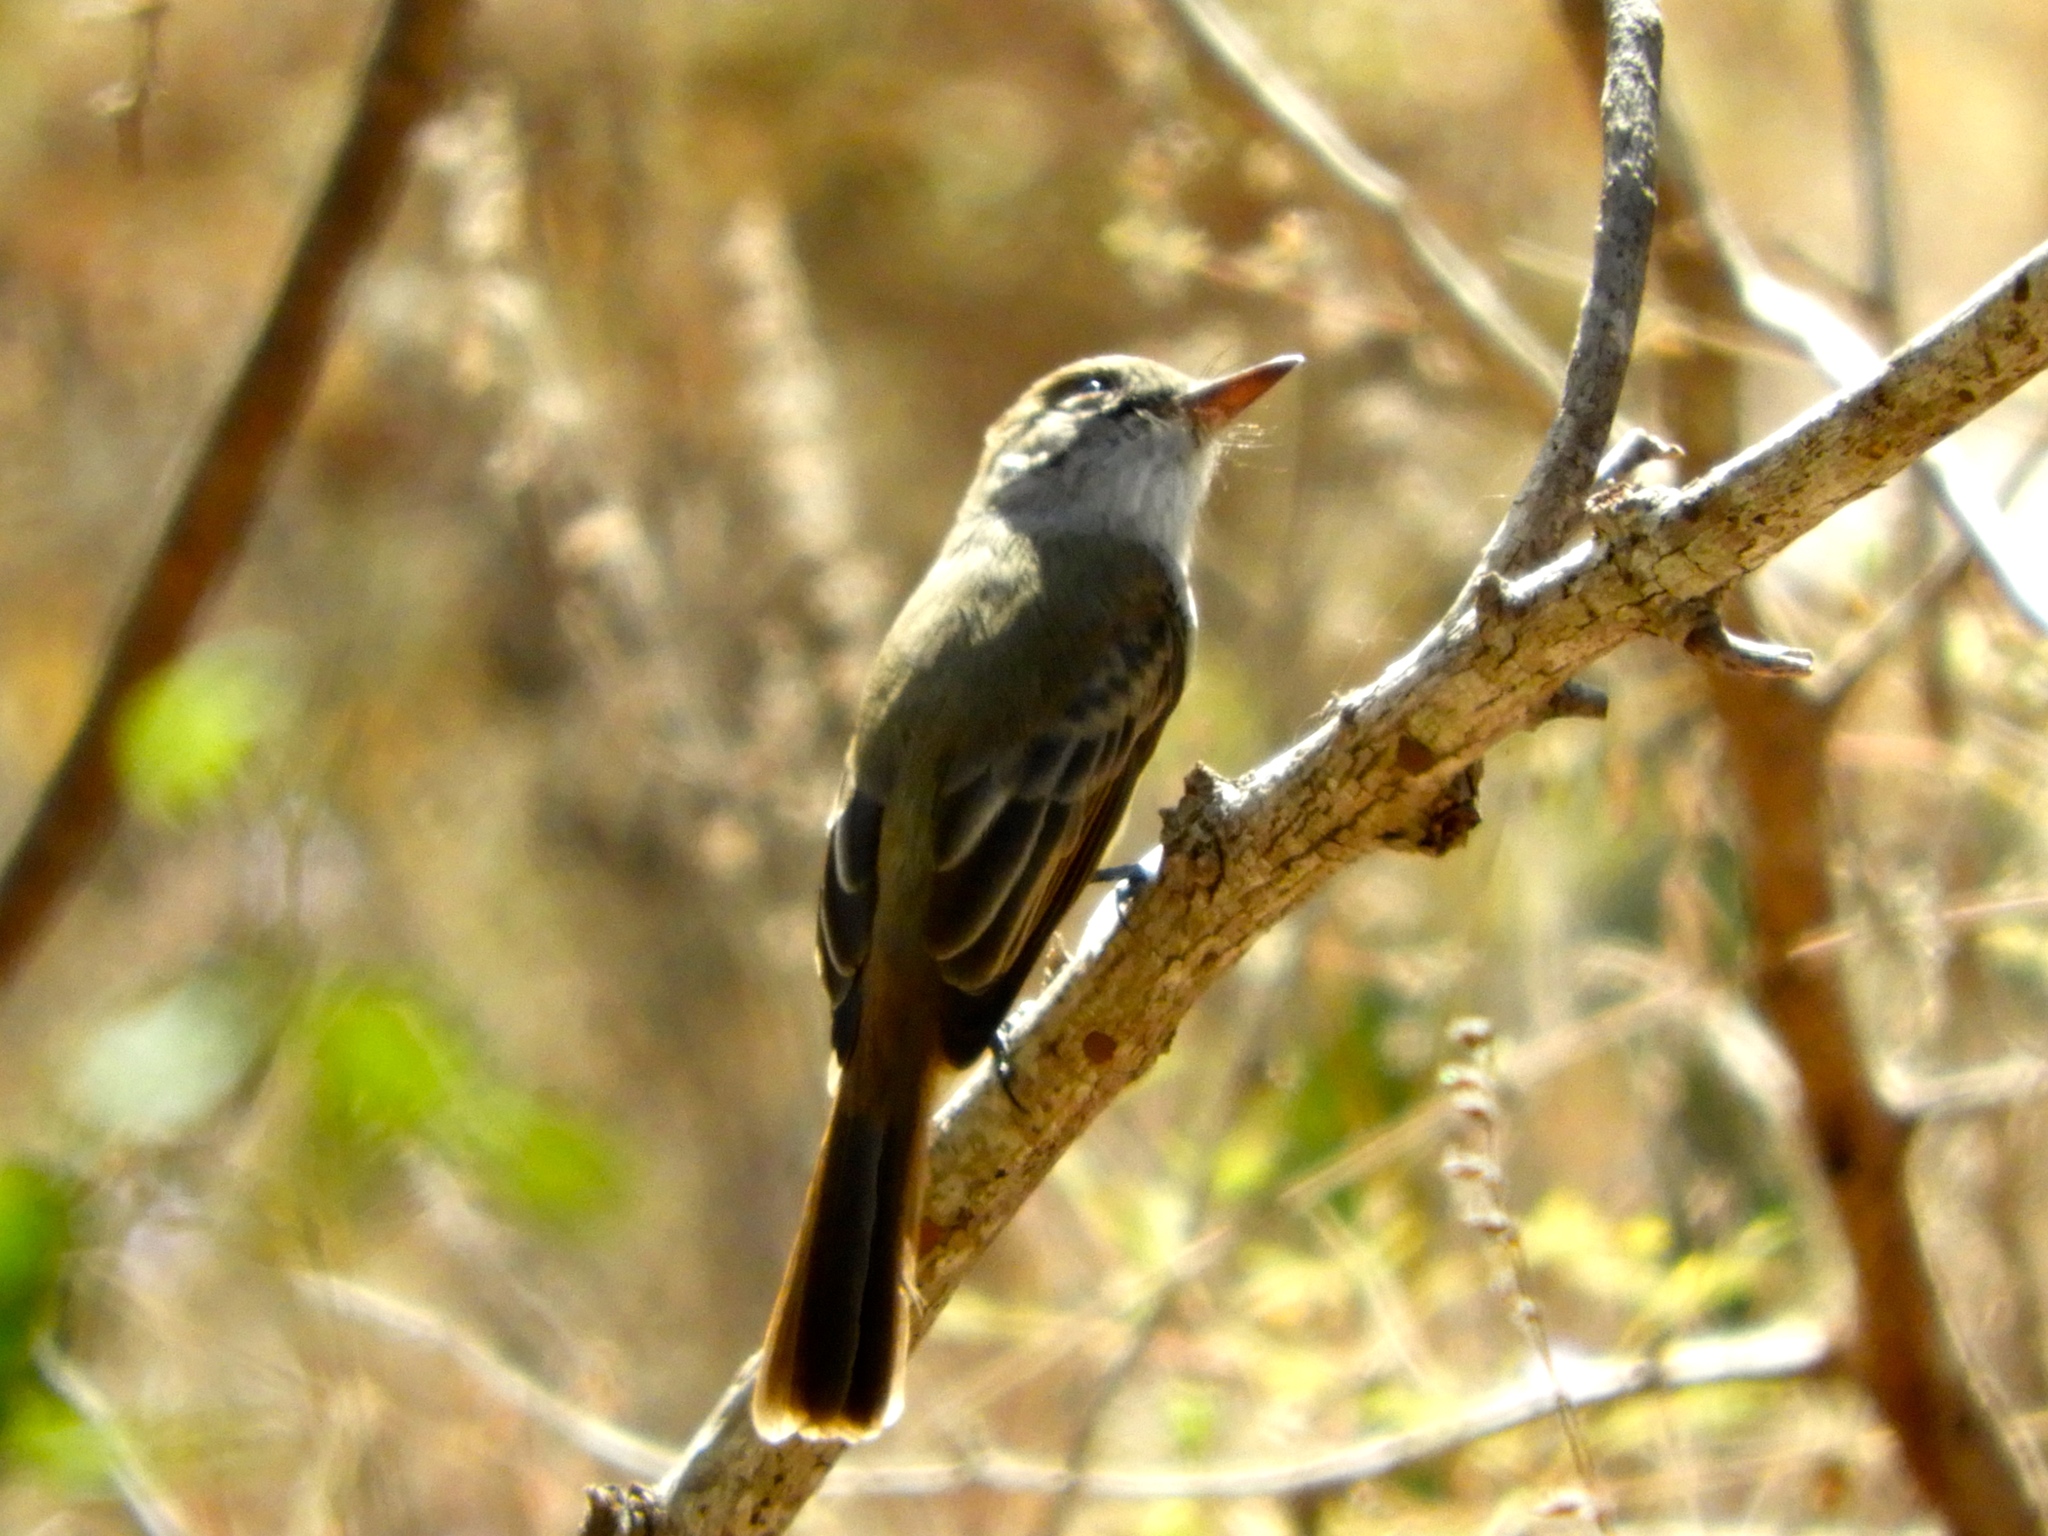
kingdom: Animalia
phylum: Chordata
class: Aves
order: Passeriformes
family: Tyrannidae
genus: Myiarchus
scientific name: Myiarchus
